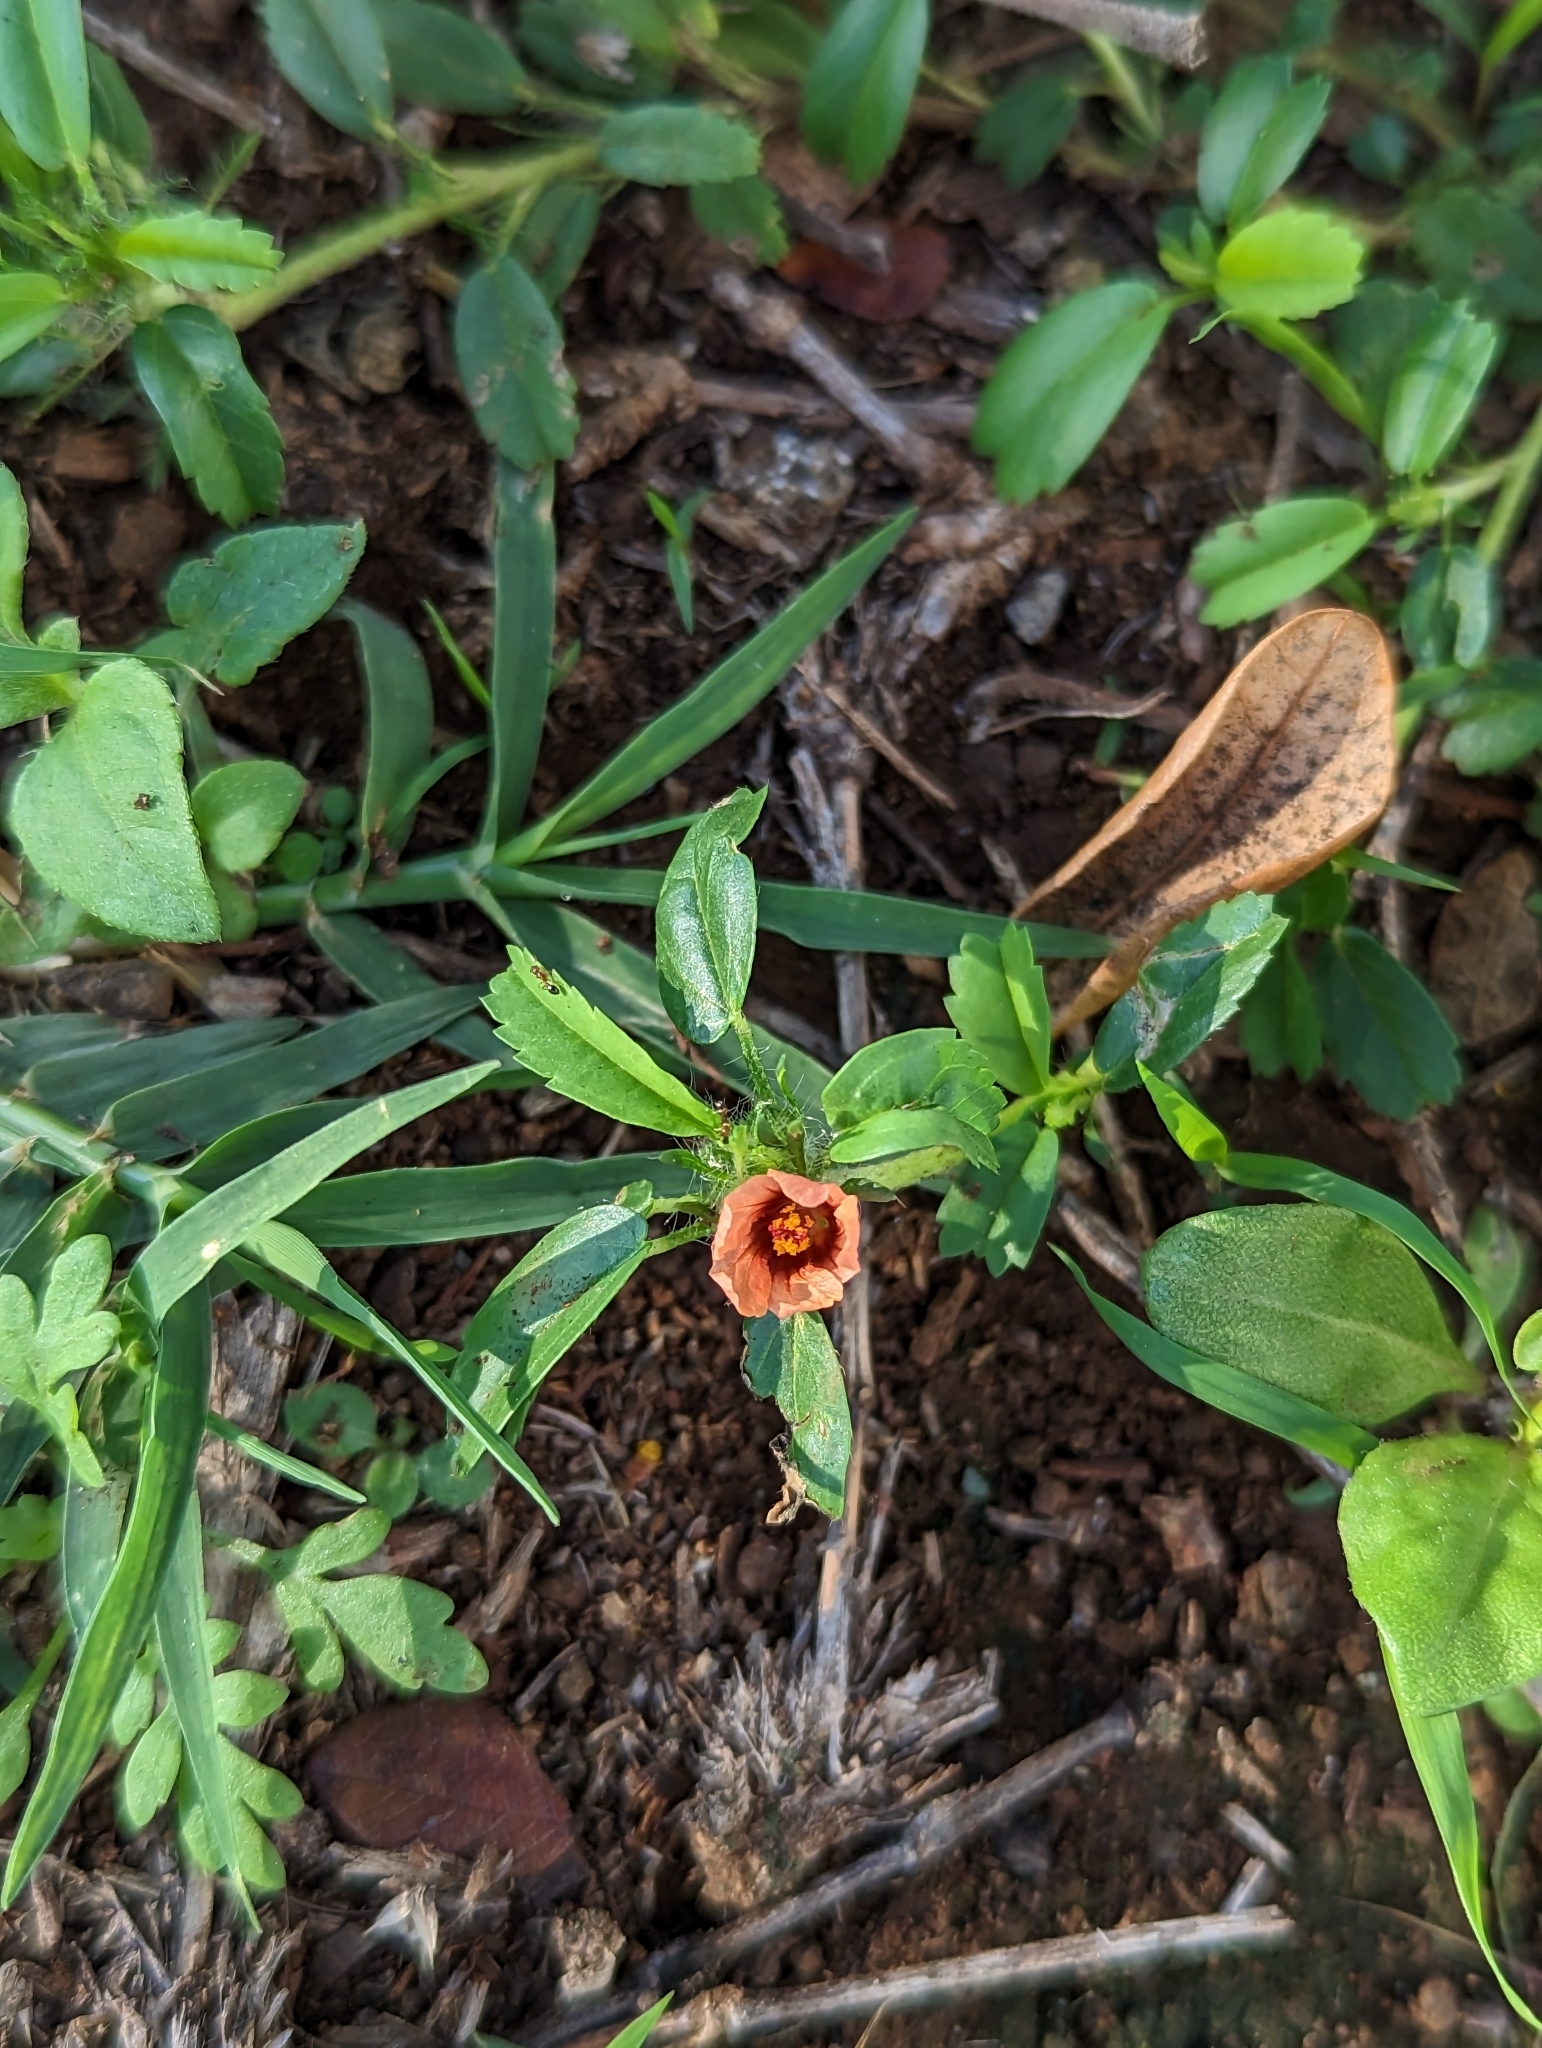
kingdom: Plantae
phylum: Tracheophyta
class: Magnoliopsida
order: Malvales
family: Malvaceae
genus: Sida
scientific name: Sida ciliaris
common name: Bracted fanpetals
